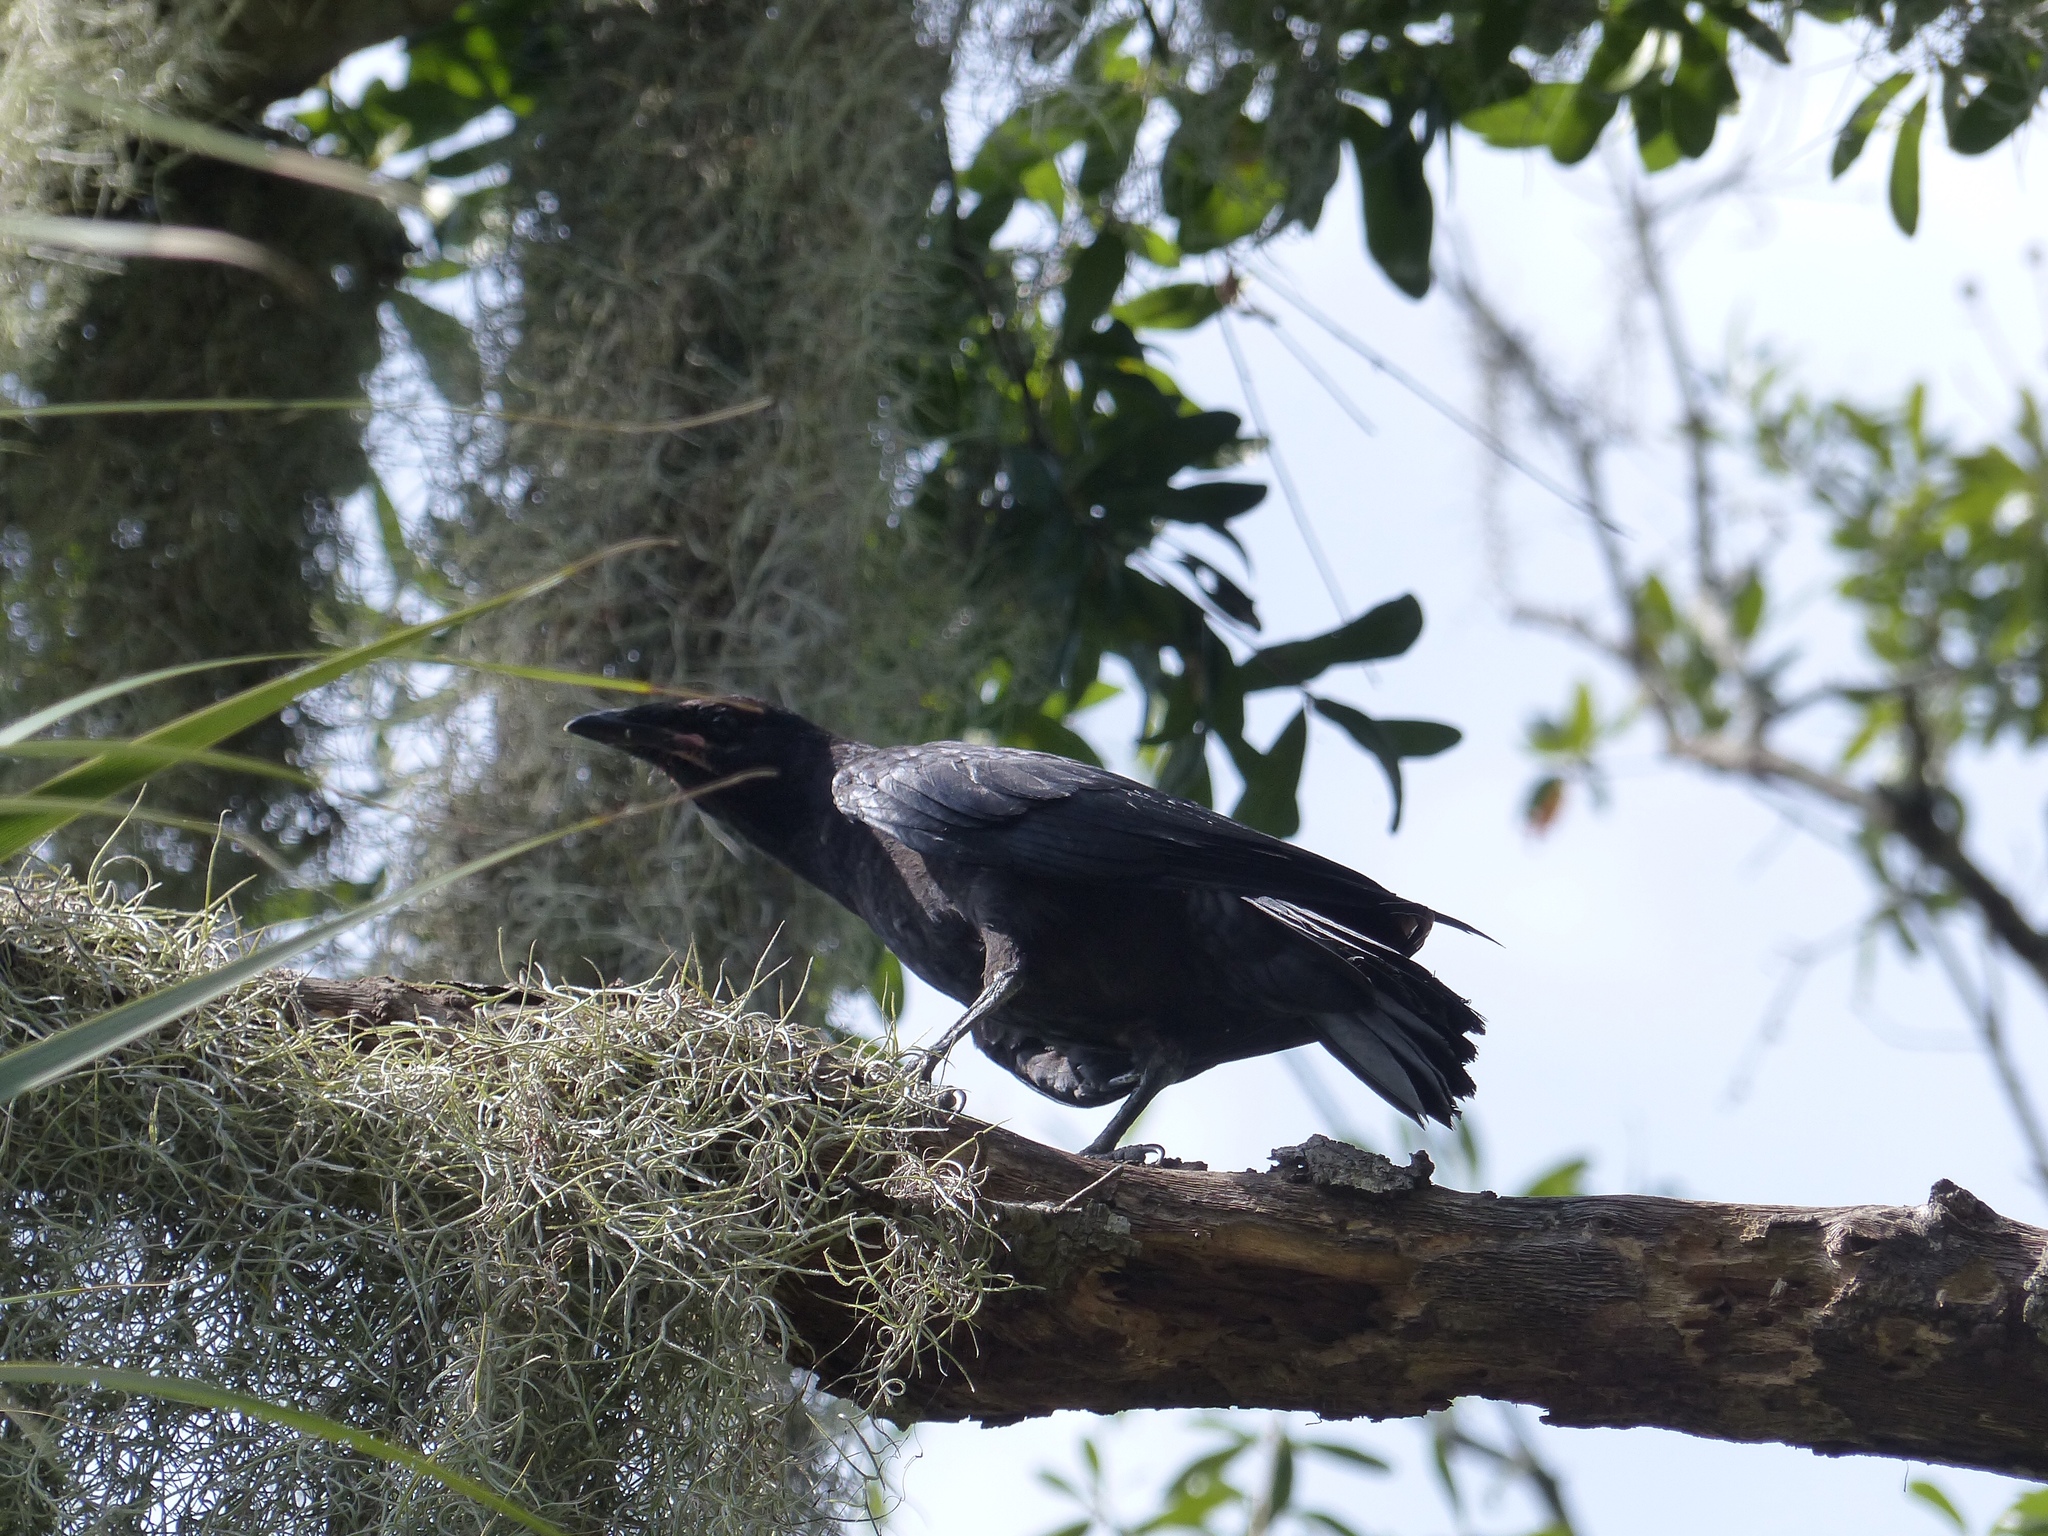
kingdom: Animalia
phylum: Chordata
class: Aves
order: Passeriformes
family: Corvidae
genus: Corvus
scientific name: Corvus
